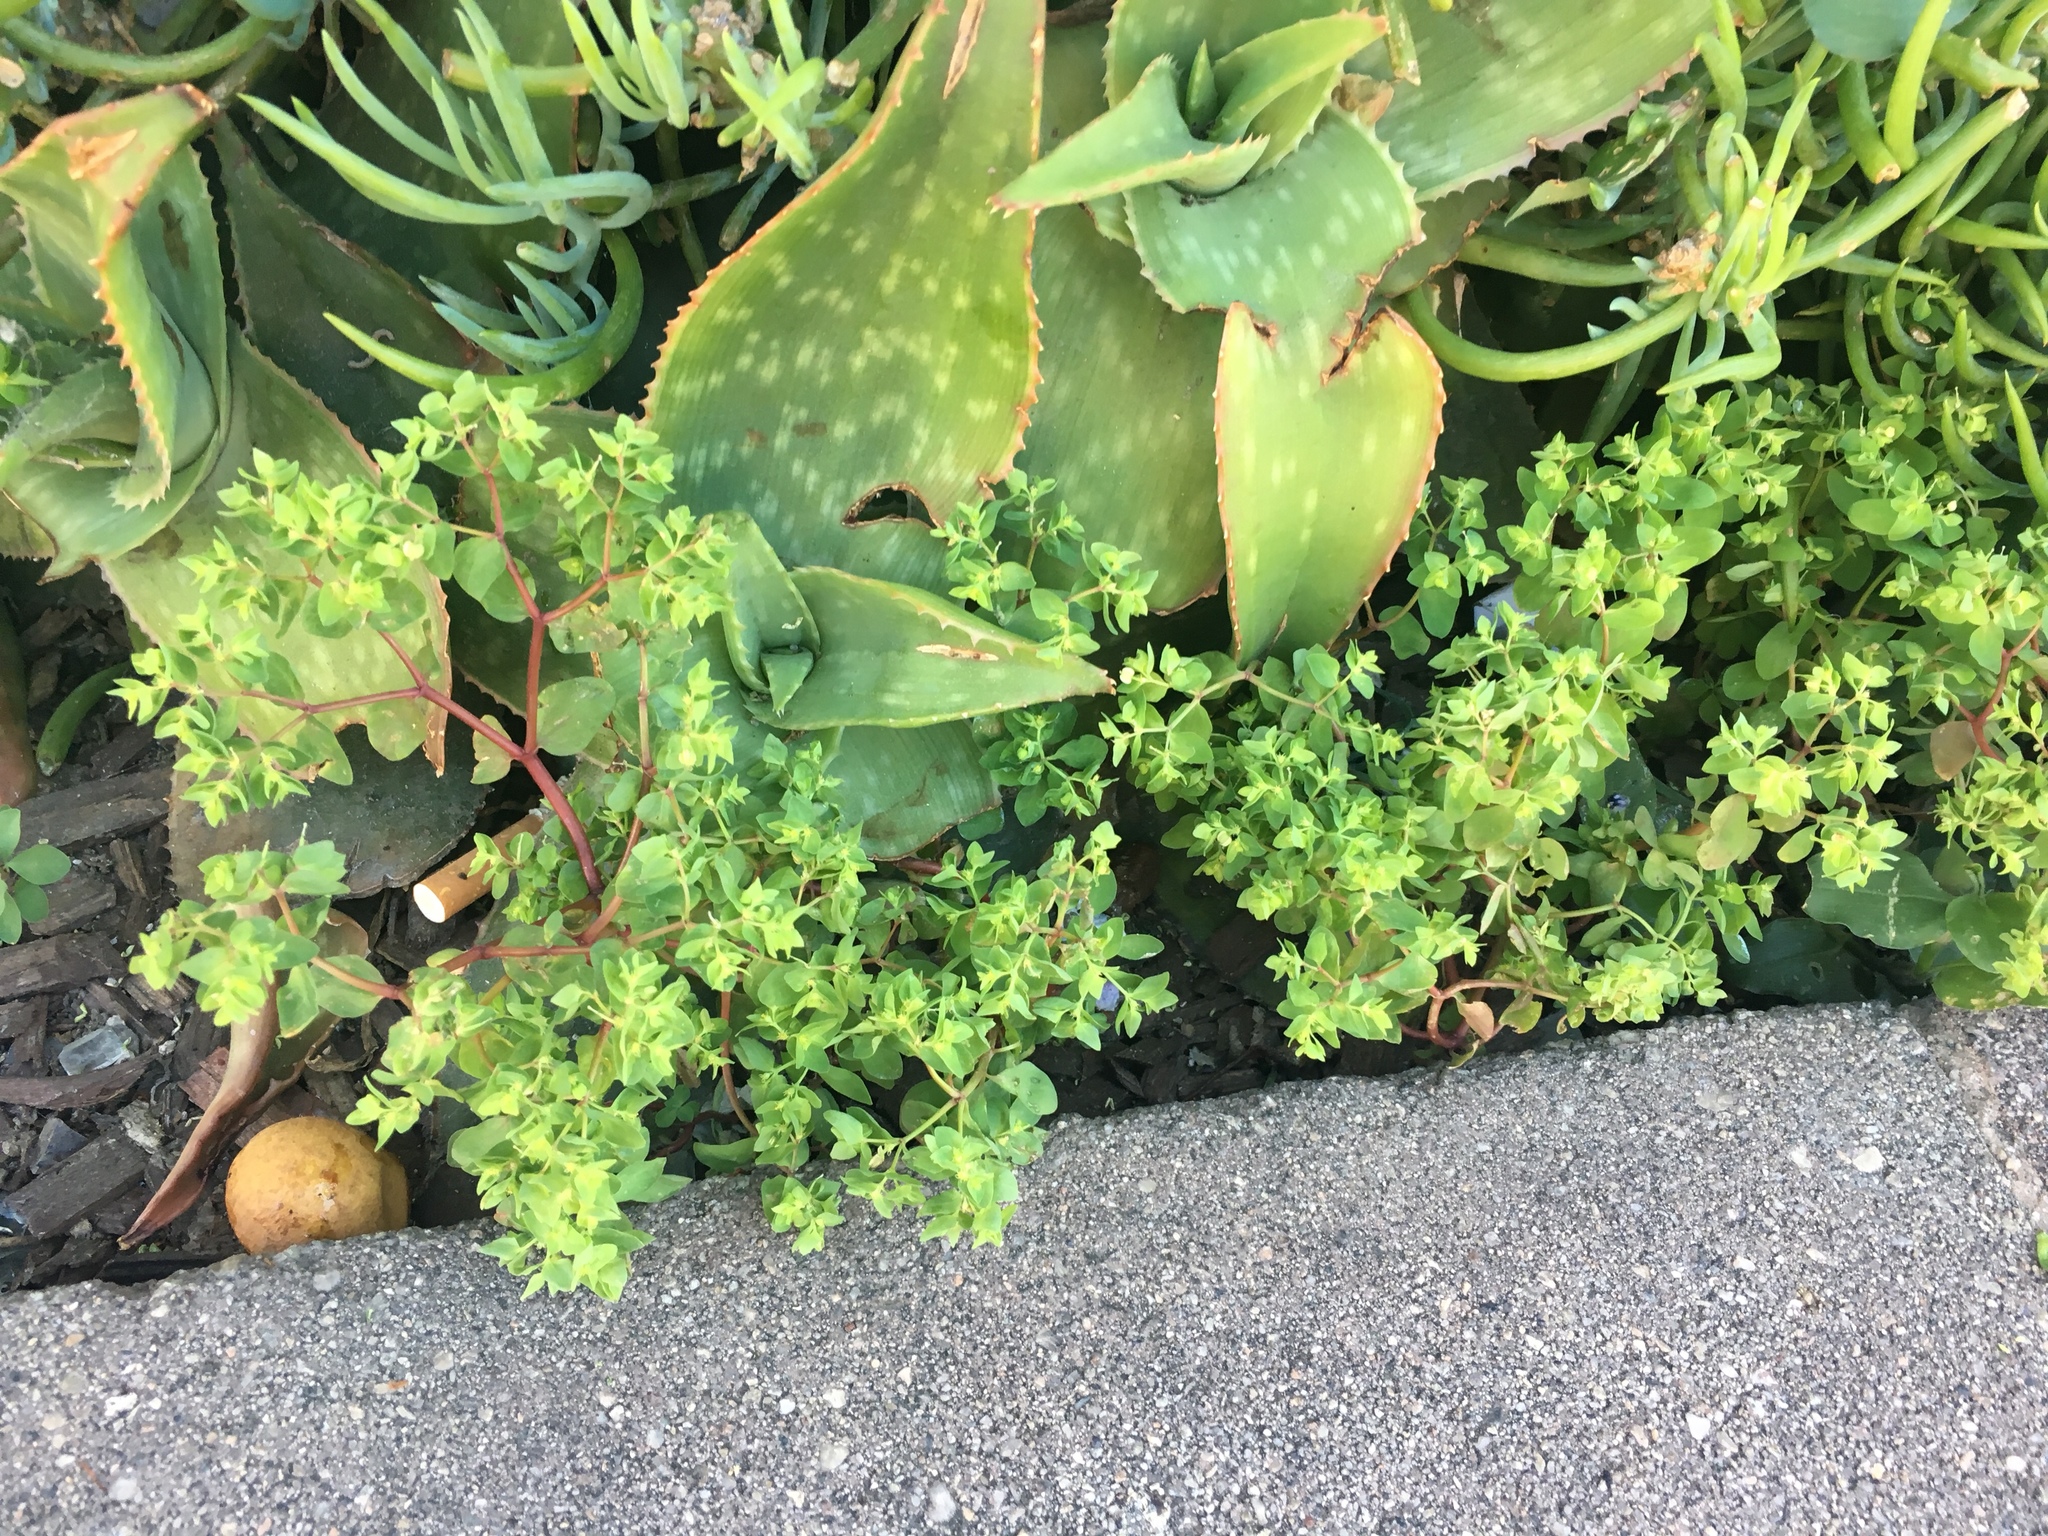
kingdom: Plantae
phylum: Tracheophyta
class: Magnoliopsida
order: Malpighiales
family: Euphorbiaceae
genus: Euphorbia
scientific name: Euphorbia peplus
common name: Petty spurge
